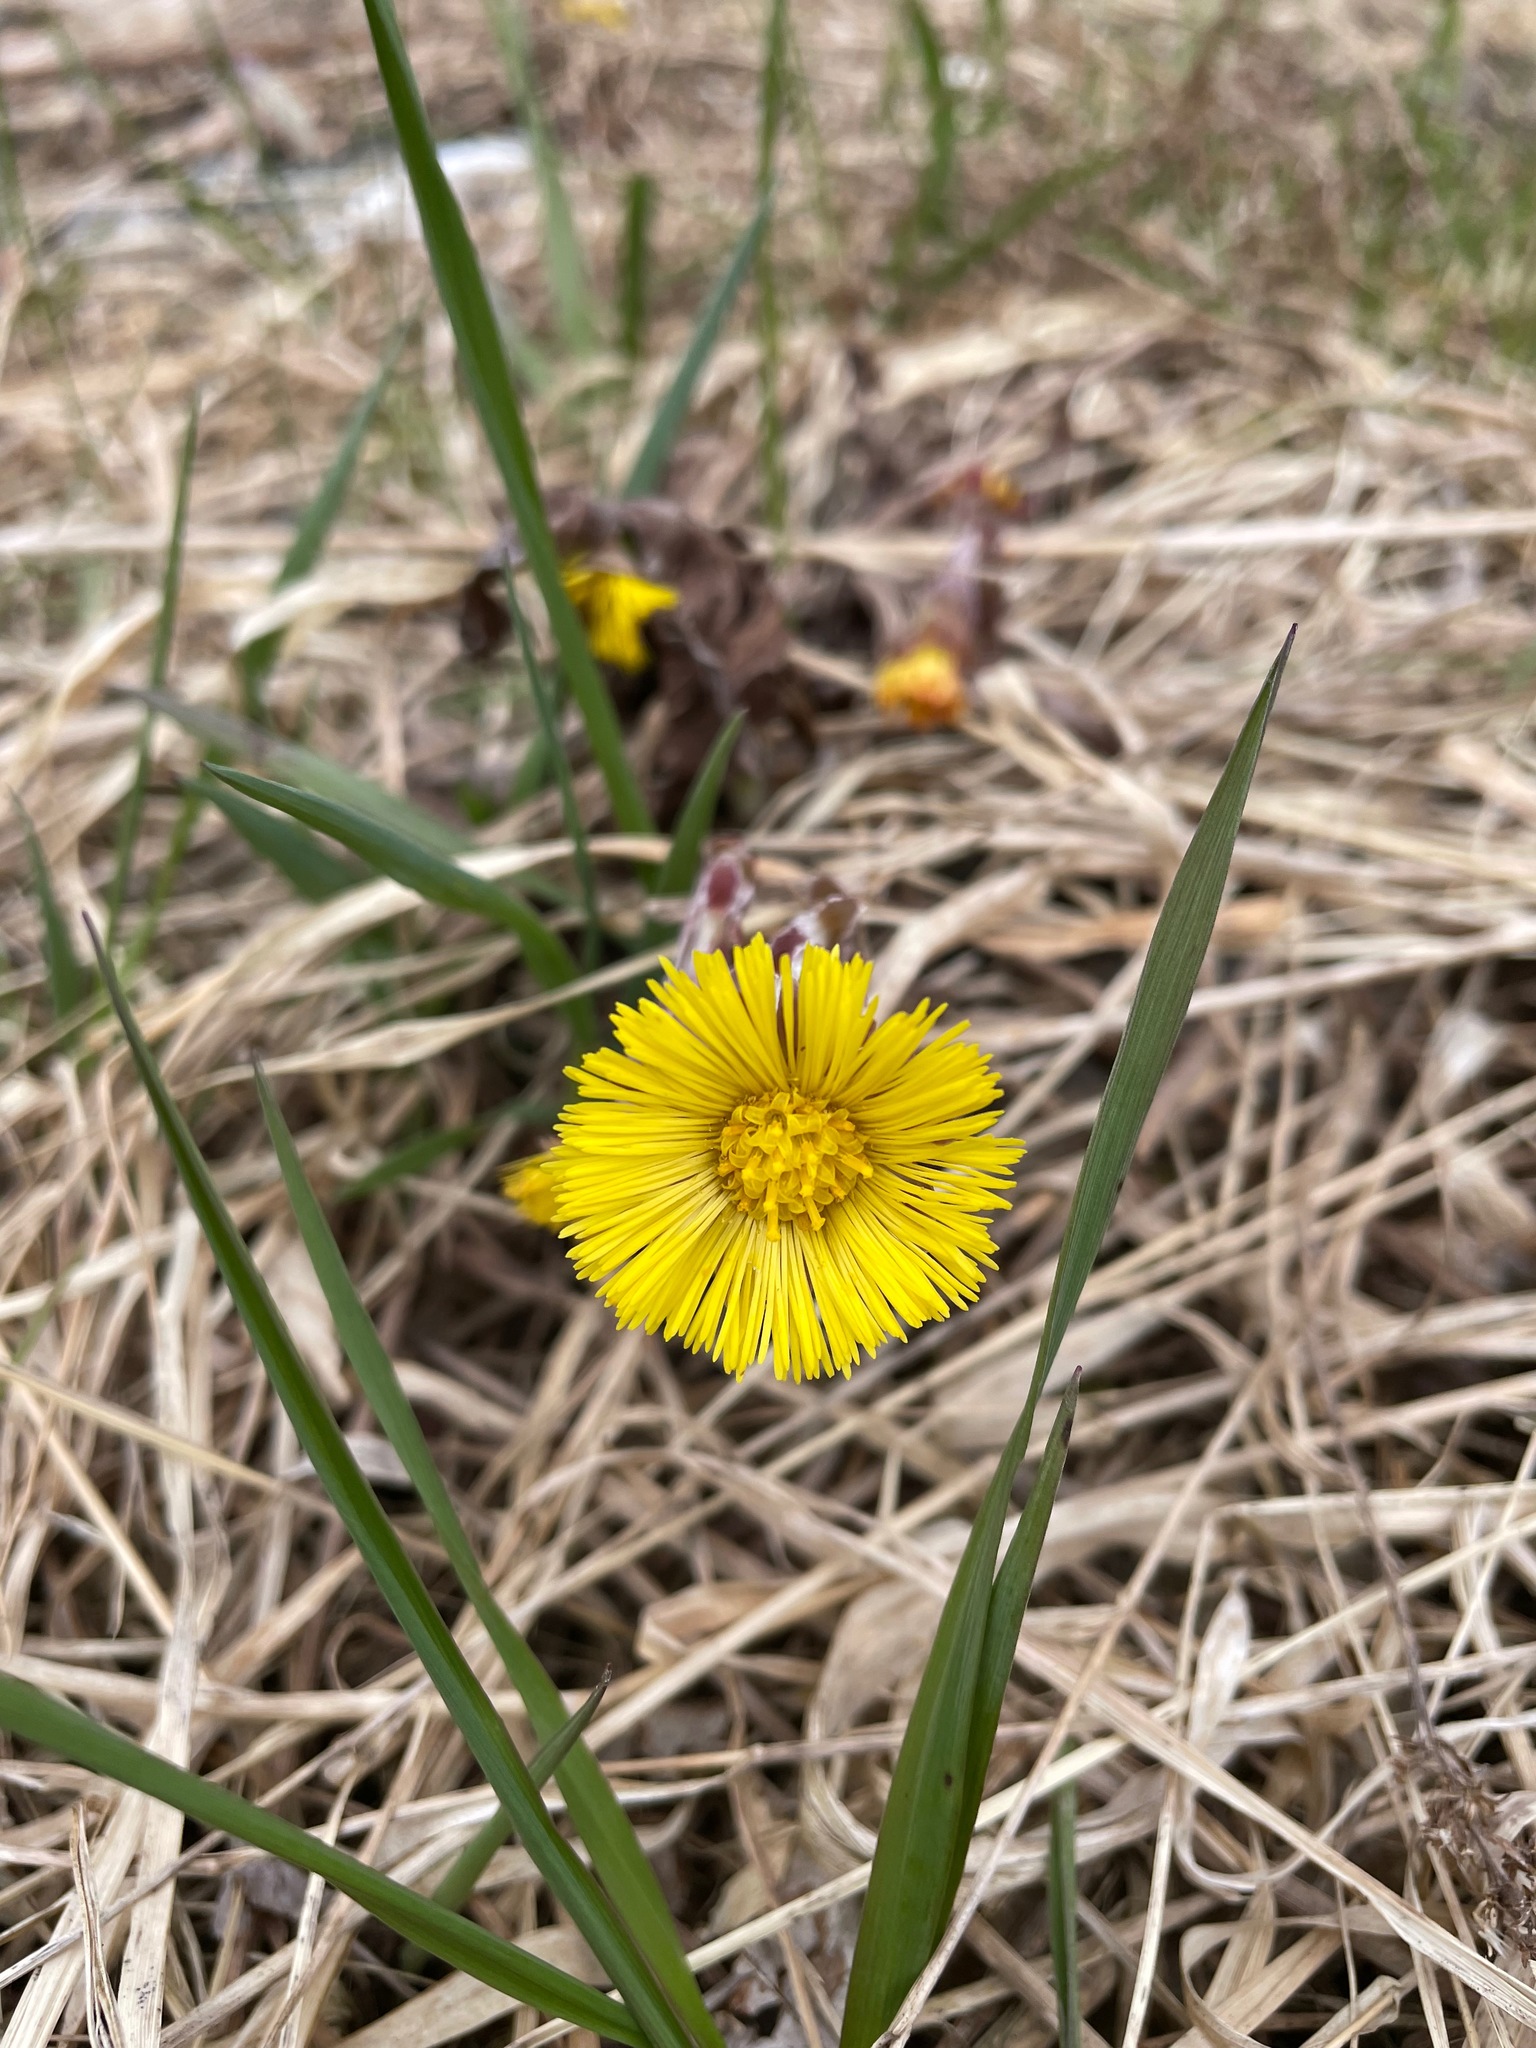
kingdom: Plantae
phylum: Tracheophyta
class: Magnoliopsida
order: Asterales
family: Asteraceae
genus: Tussilago
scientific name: Tussilago farfara
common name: Coltsfoot
